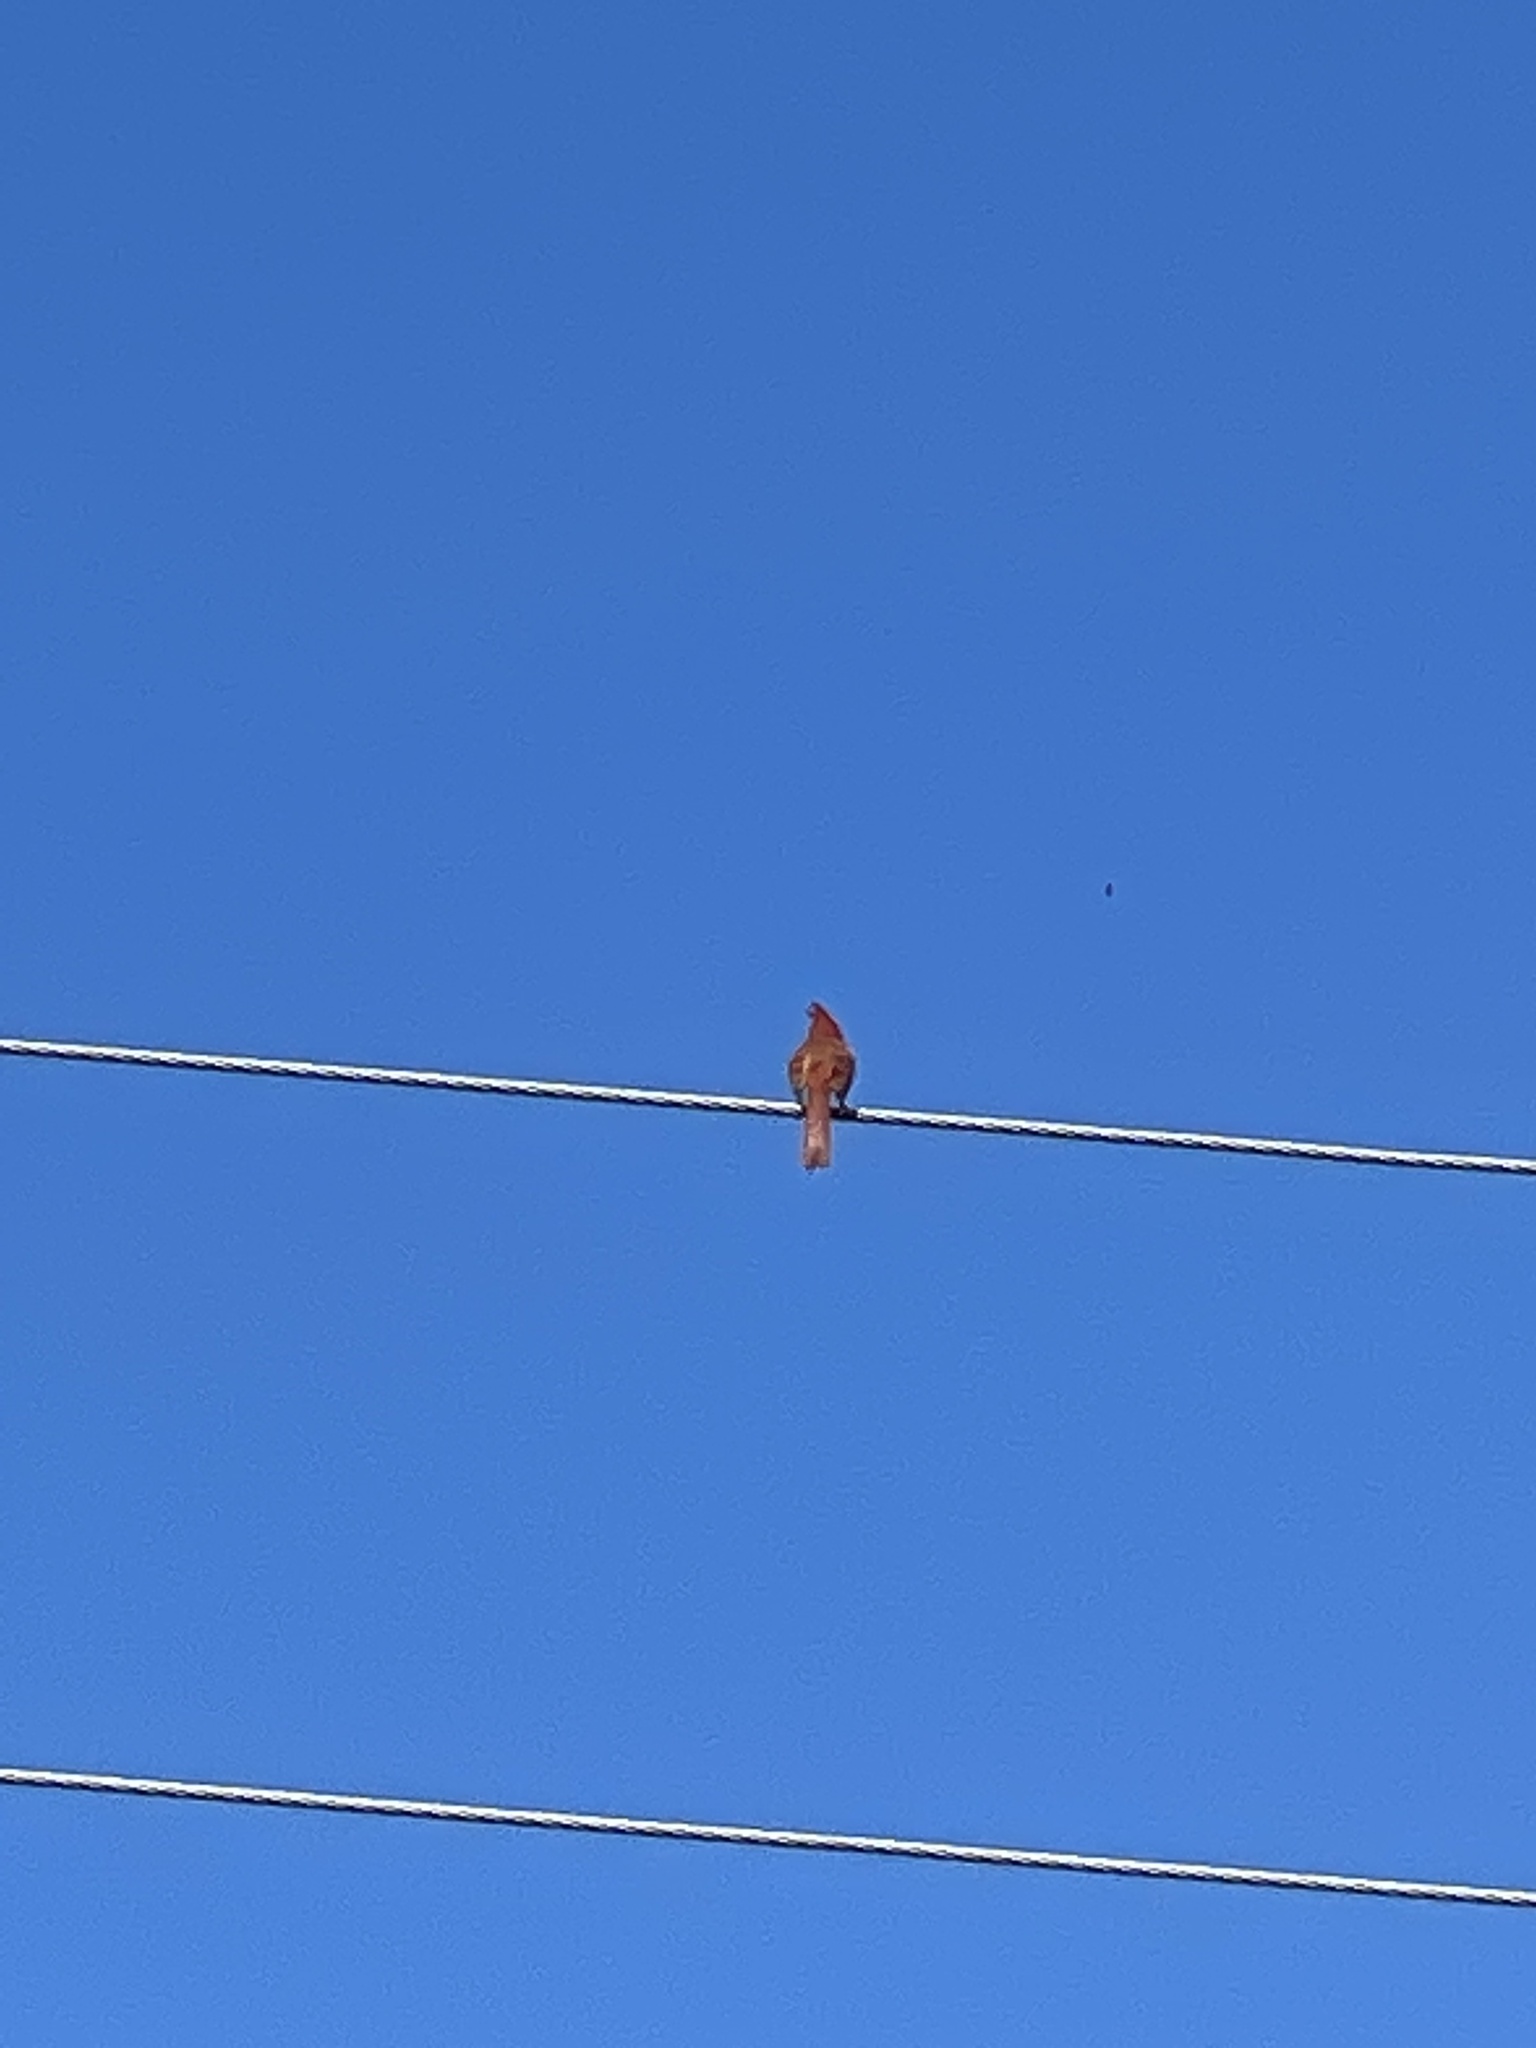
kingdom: Animalia
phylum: Chordata
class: Aves
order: Passeriformes
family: Cardinalidae
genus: Cardinalis
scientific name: Cardinalis cardinalis
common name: Northern cardinal
